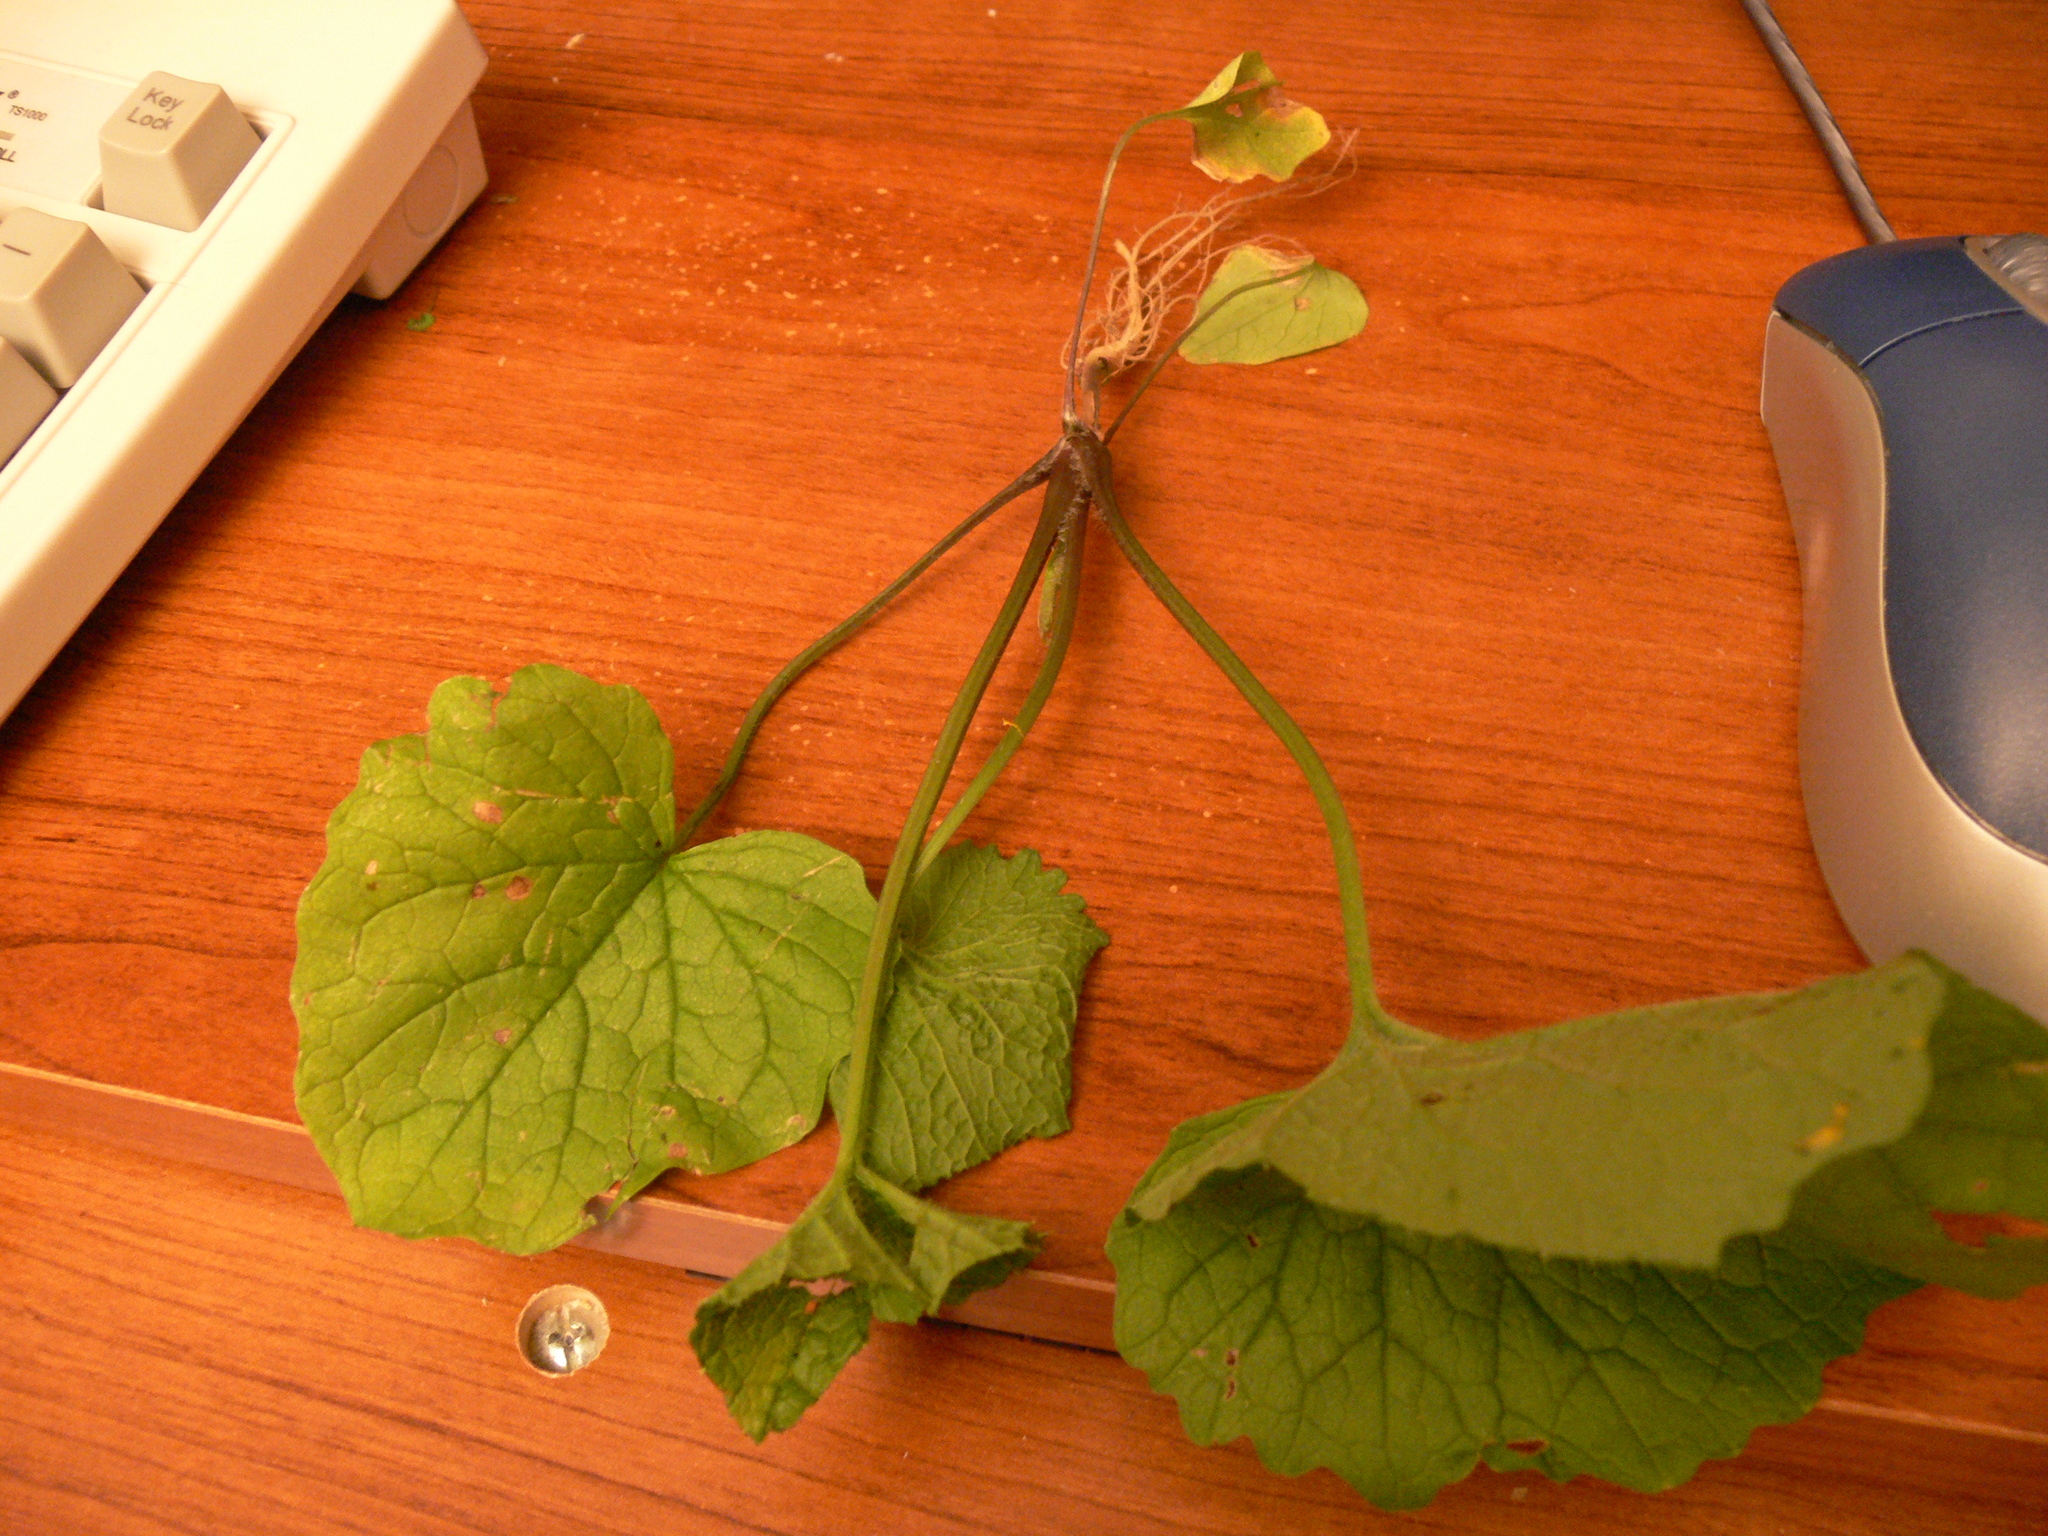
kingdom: Plantae
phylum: Tracheophyta
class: Magnoliopsida
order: Brassicales
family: Brassicaceae
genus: Alliaria
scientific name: Alliaria petiolata
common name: Garlic mustard
